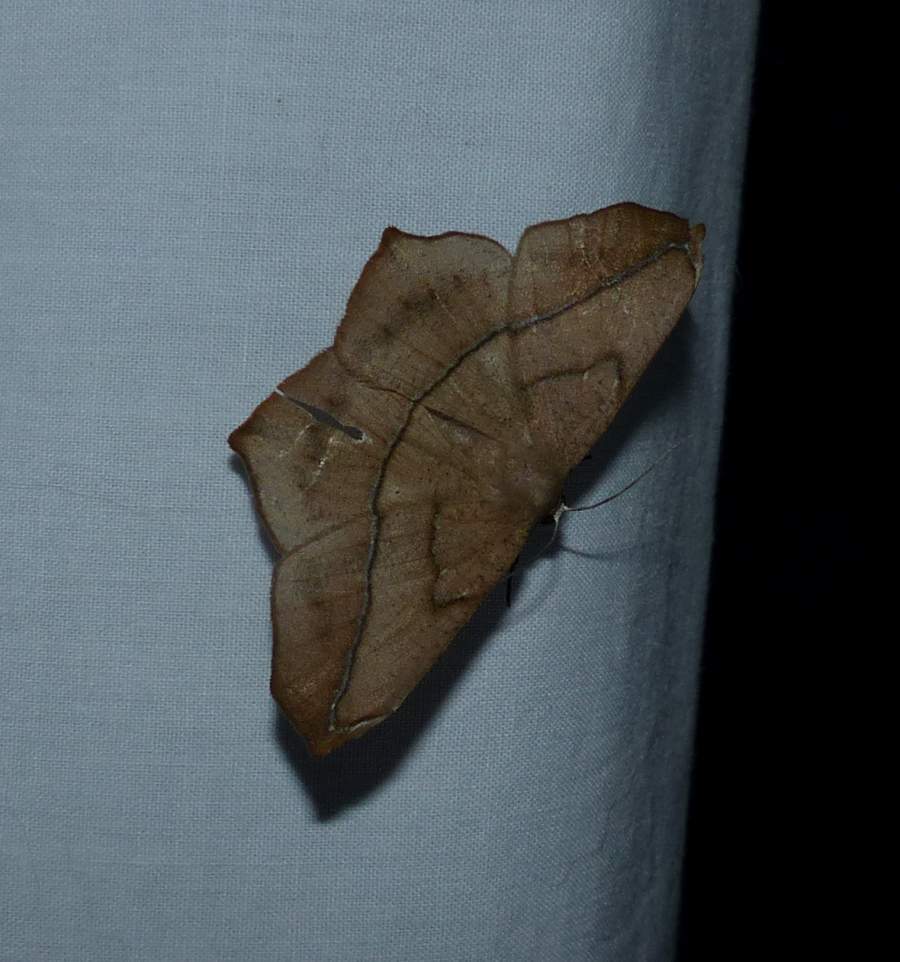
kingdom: Animalia
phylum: Arthropoda
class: Insecta
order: Lepidoptera
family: Geometridae
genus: Prochoerodes
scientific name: Prochoerodes lineola
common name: Large maple spanworm
